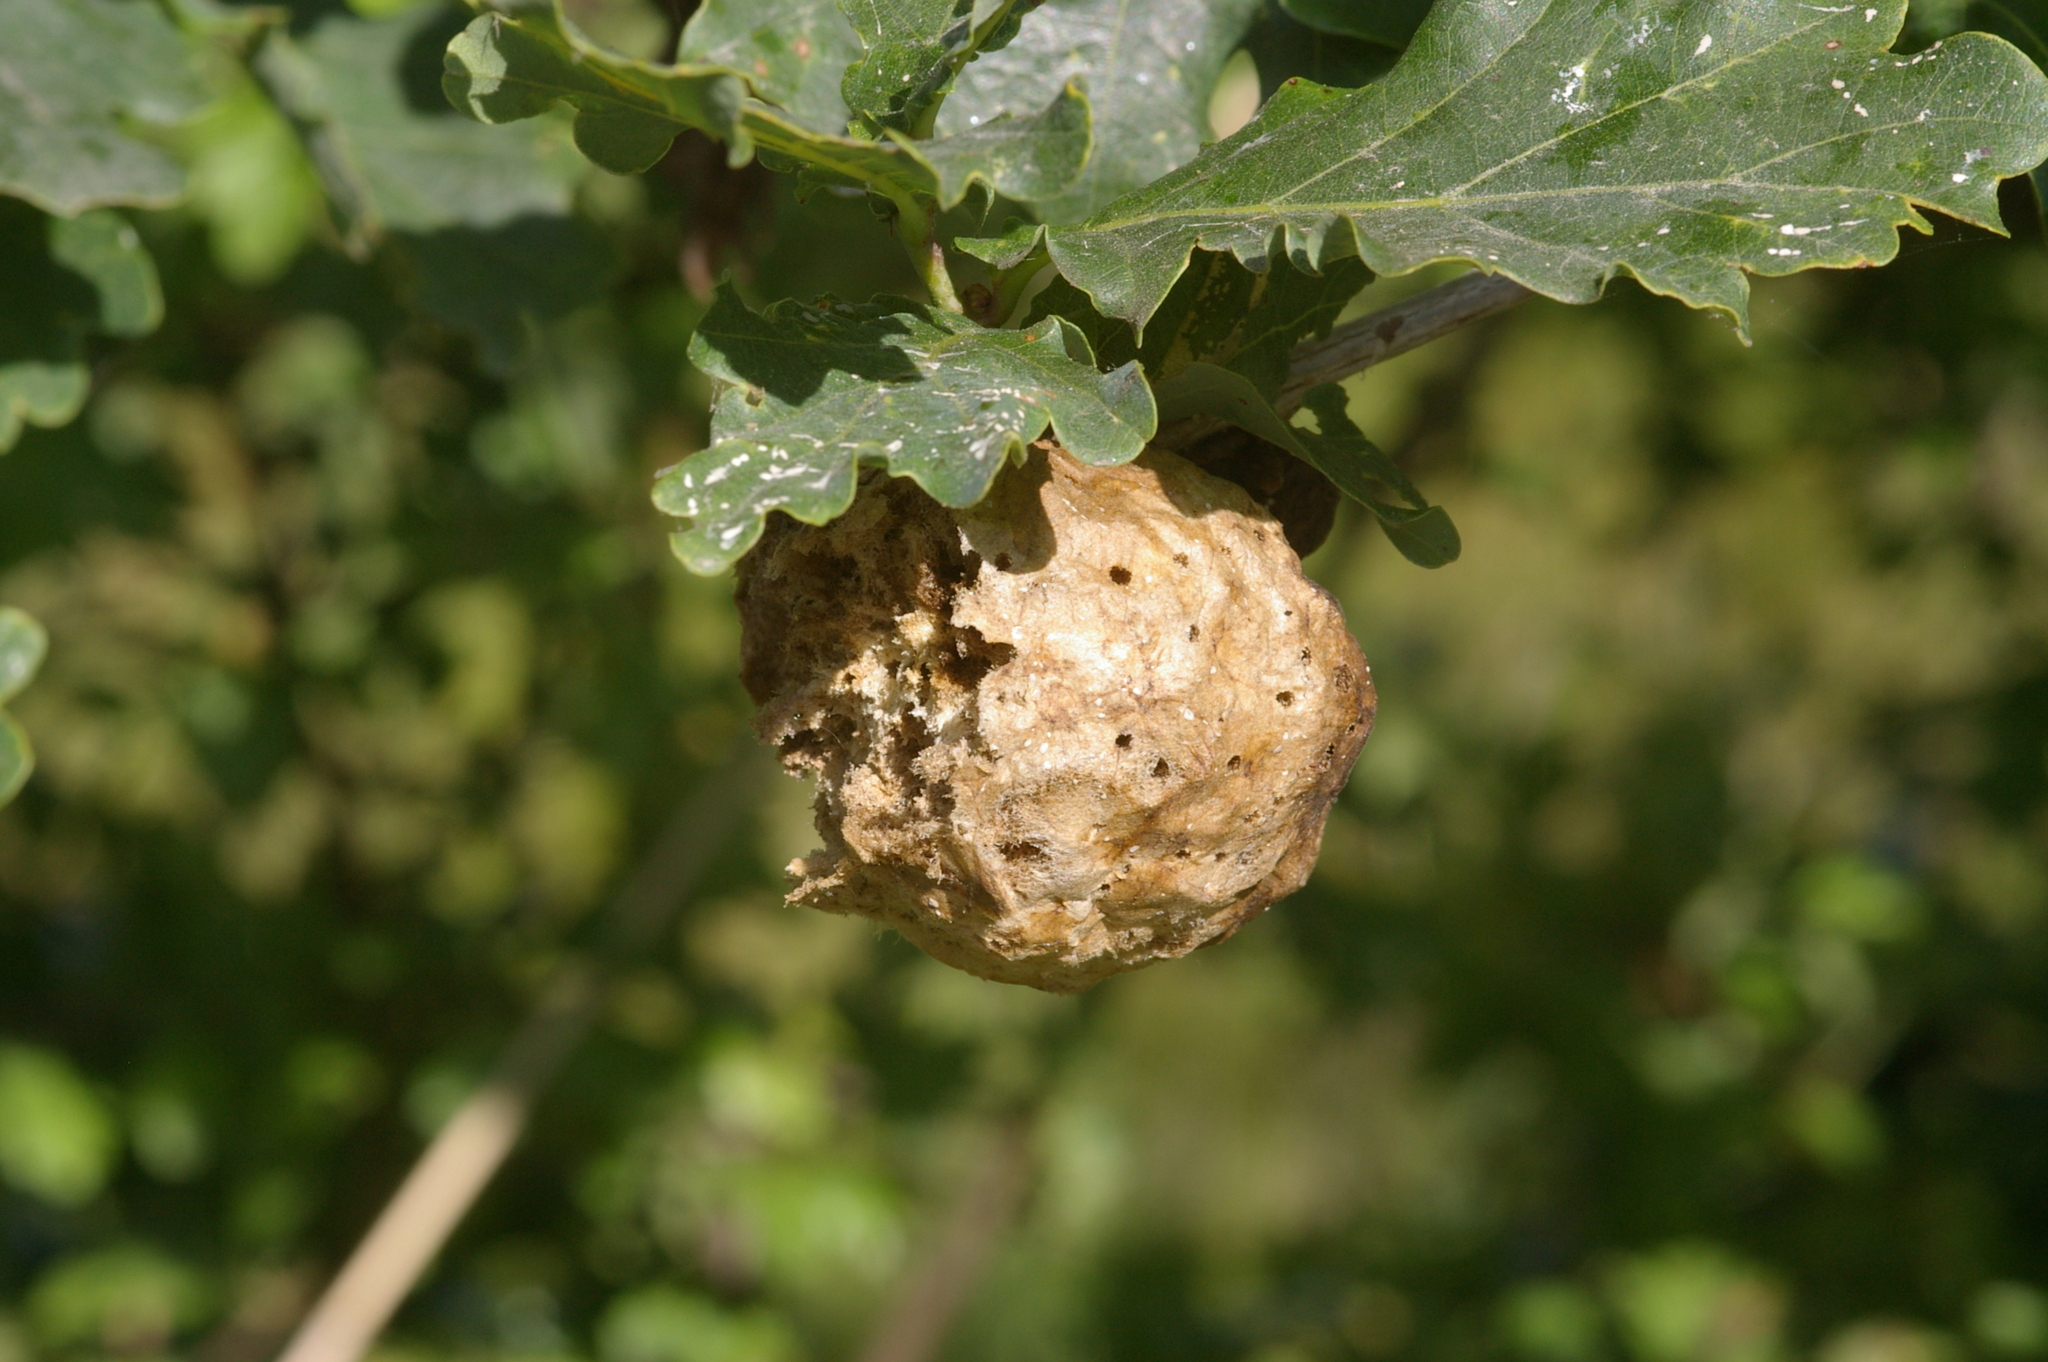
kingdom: Animalia
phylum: Arthropoda
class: Insecta
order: Hymenoptera
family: Cynipidae
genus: Biorhiza
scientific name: Biorhiza pallida
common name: Oak apple
